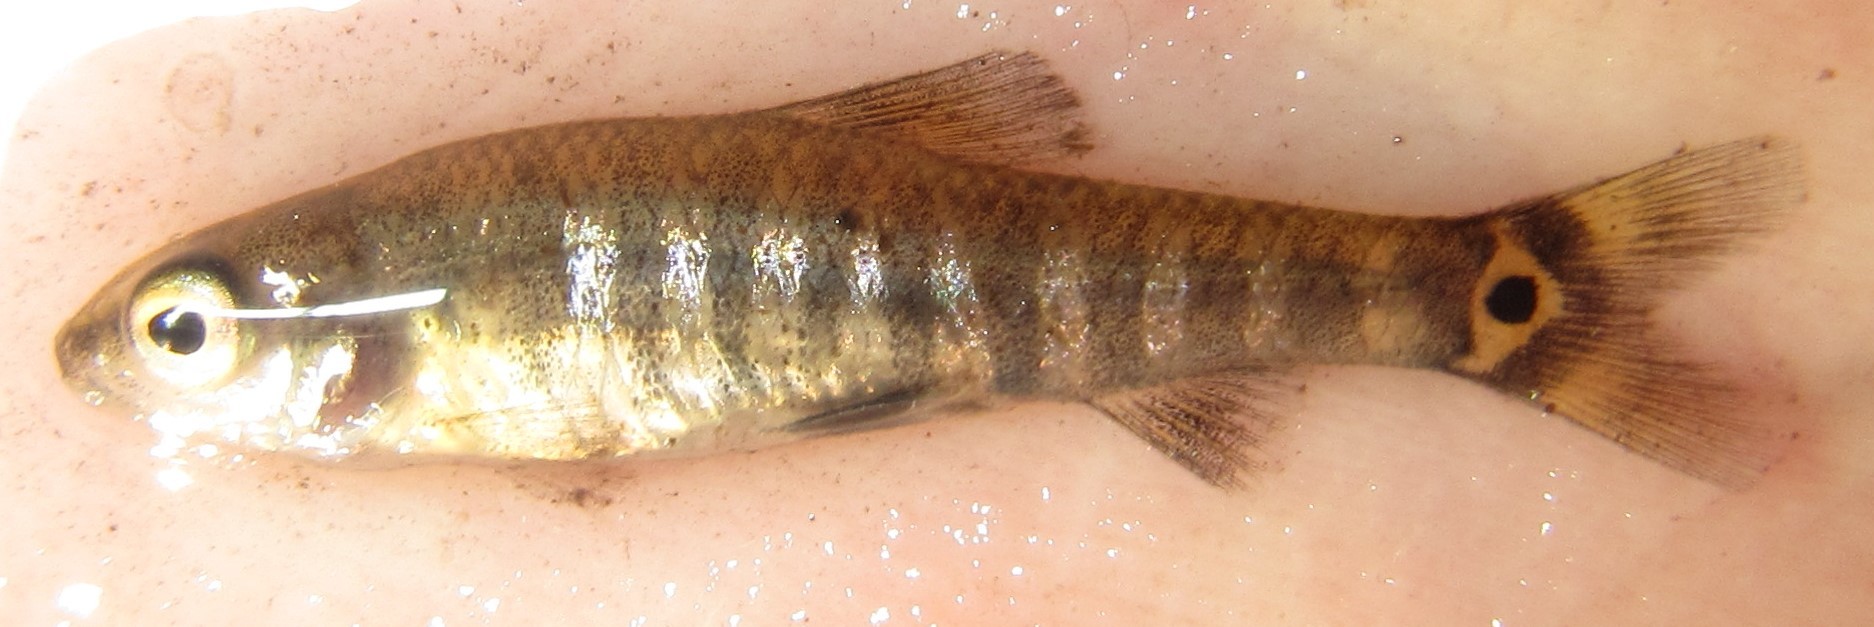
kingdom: Animalia
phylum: Chordata
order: Characiformes
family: Distichodontidae
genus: Nannocharax
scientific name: Nannocharax machadoi
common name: Dwarf citharine
